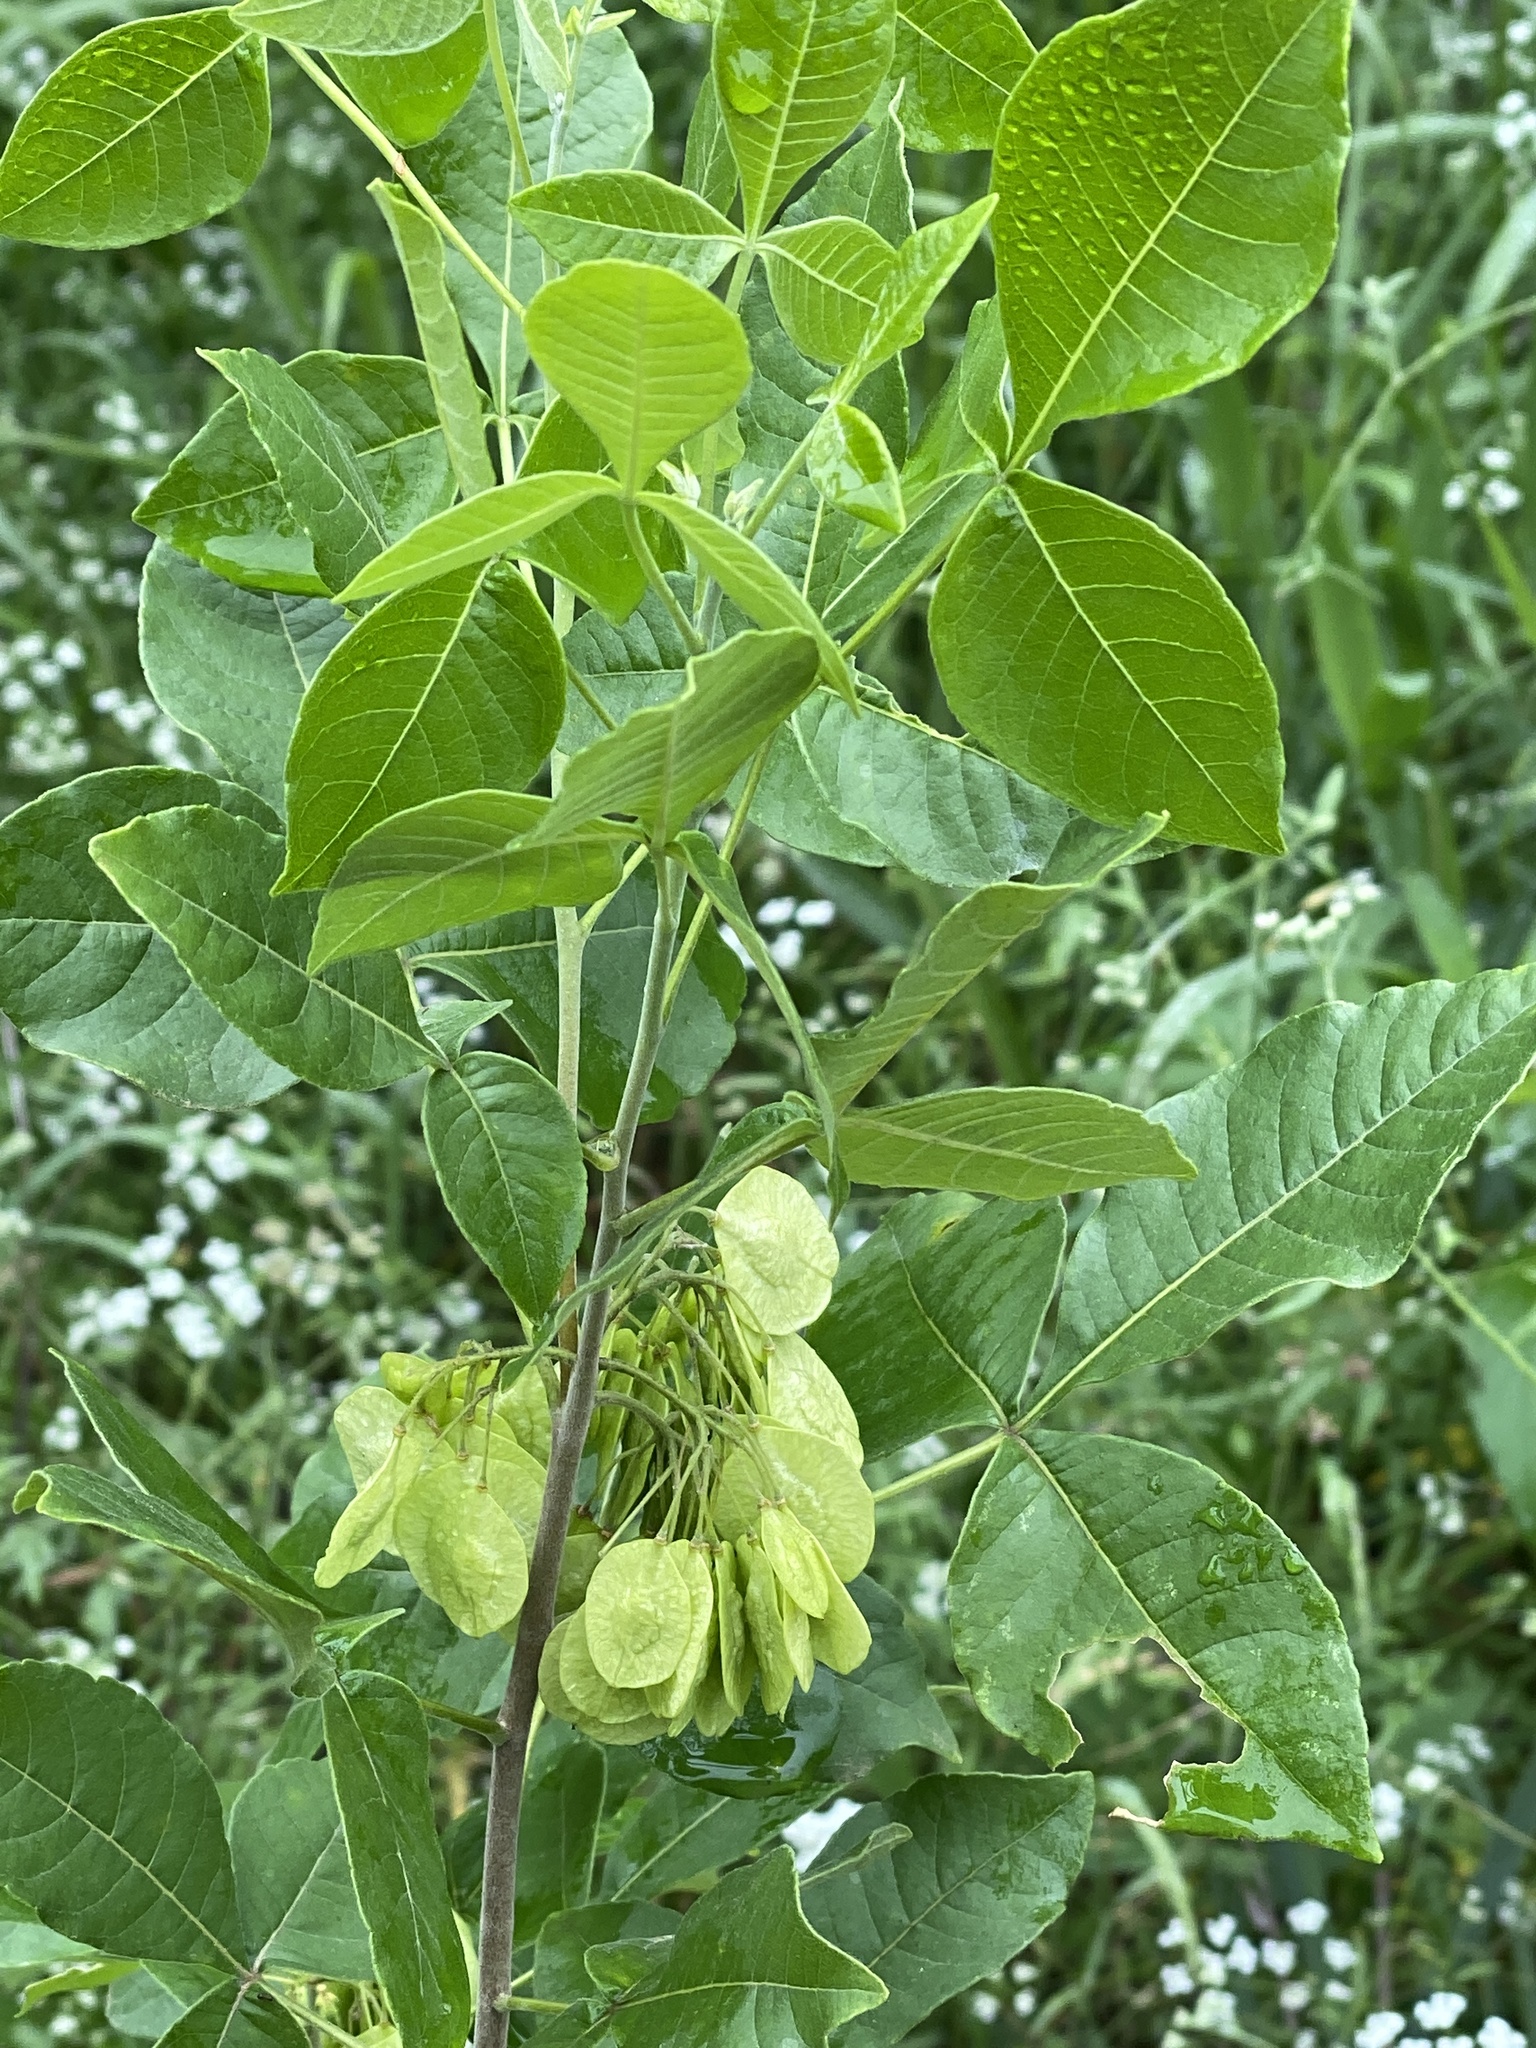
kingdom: Plantae
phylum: Tracheophyta
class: Magnoliopsida
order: Sapindales
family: Rutaceae
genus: Ptelea
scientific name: Ptelea trifoliata
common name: Common hop-tree
